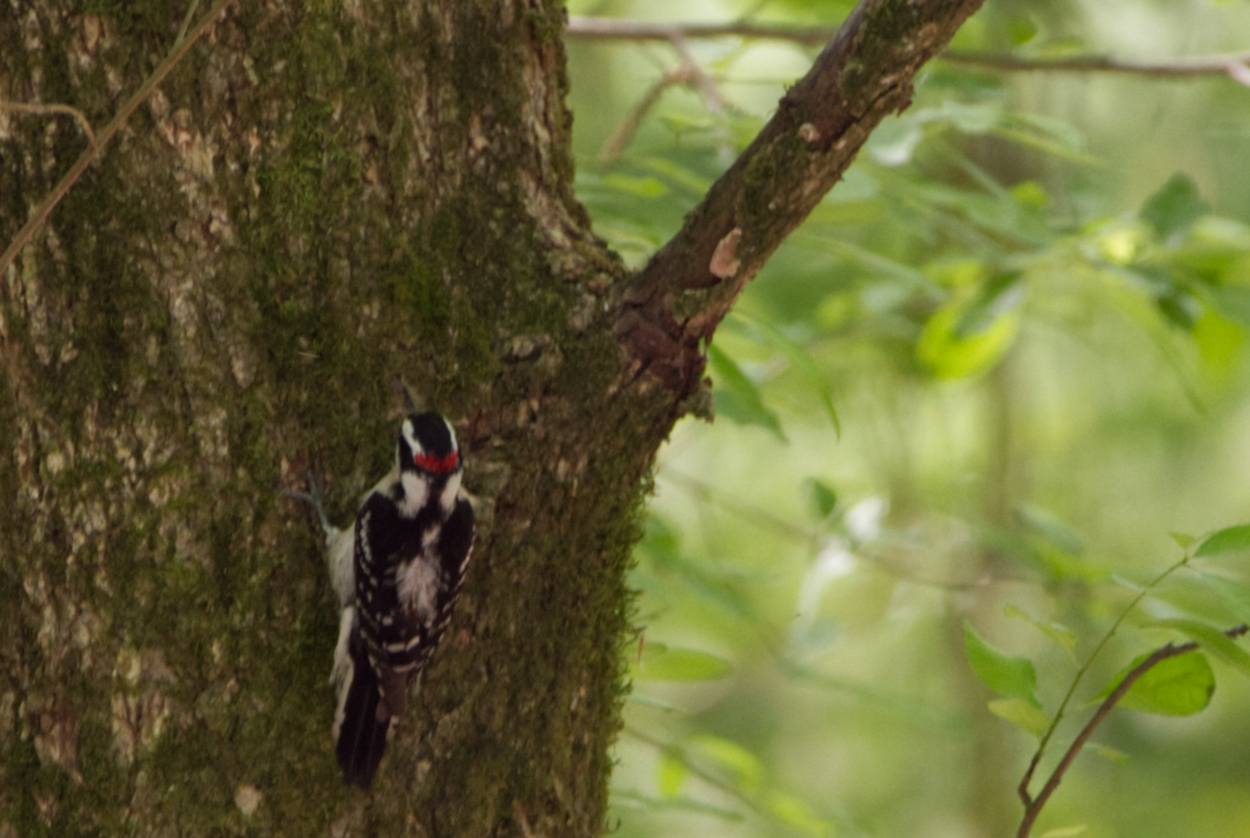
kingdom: Animalia
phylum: Chordata
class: Aves
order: Piciformes
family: Picidae
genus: Dryobates
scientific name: Dryobates pubescens
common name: Downy woodpecker
